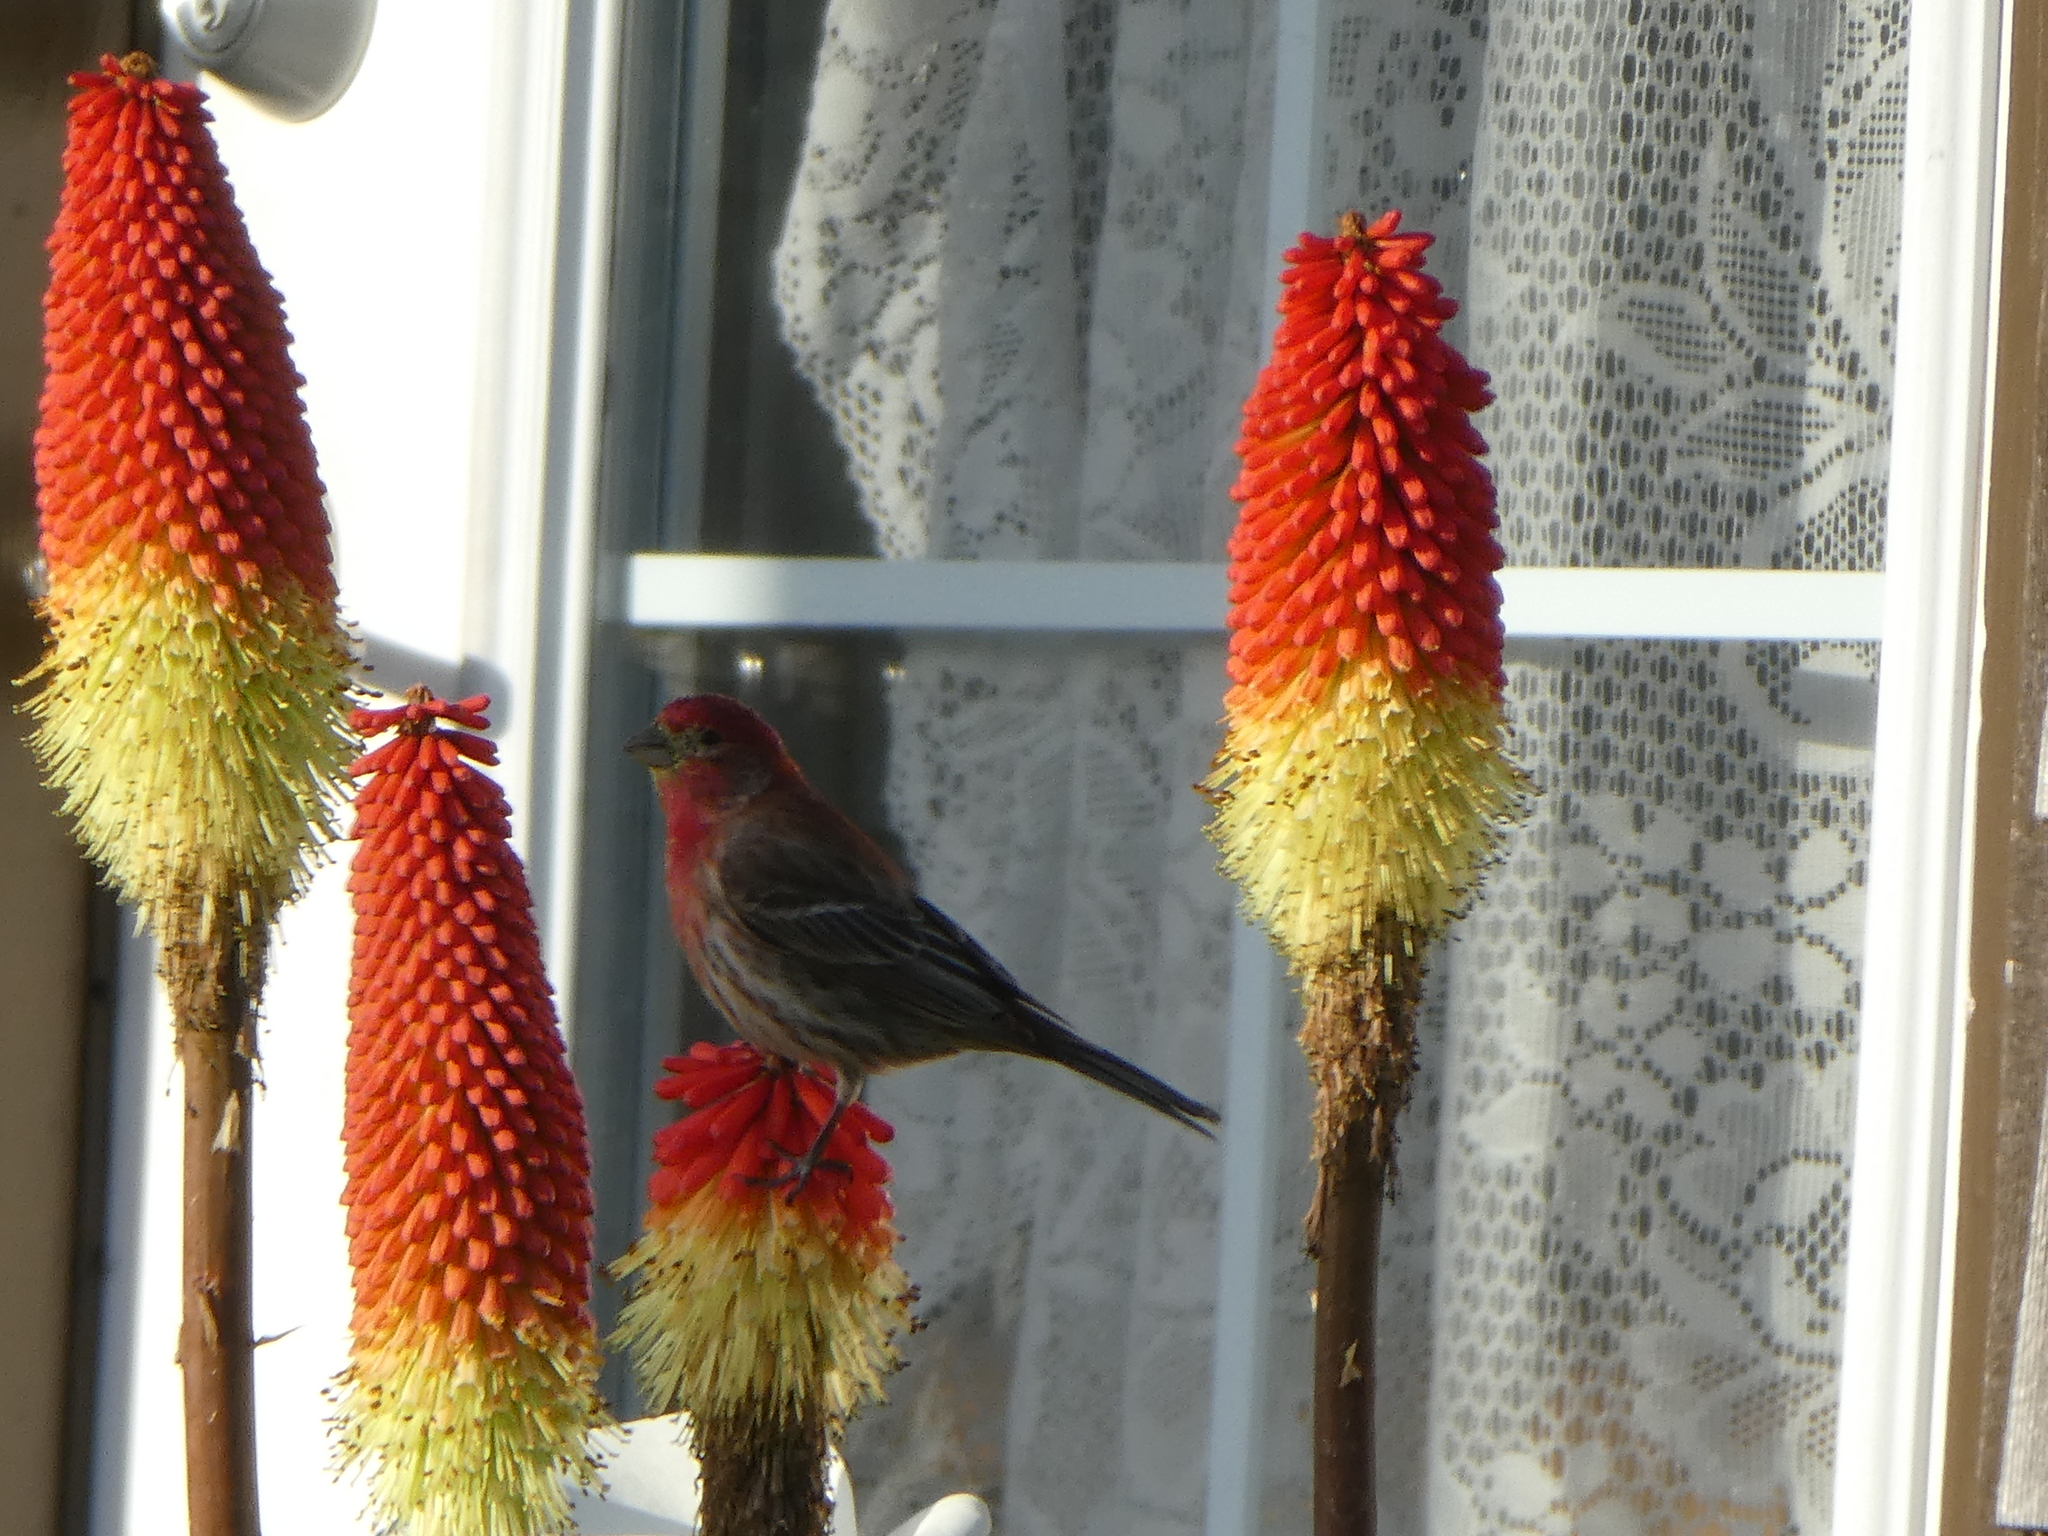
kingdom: Animalia
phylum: Chordata
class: Aves
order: Passeriformes
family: Fringillidae
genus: Haemorhous
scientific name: Haemorhous mexicanus
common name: House finch
